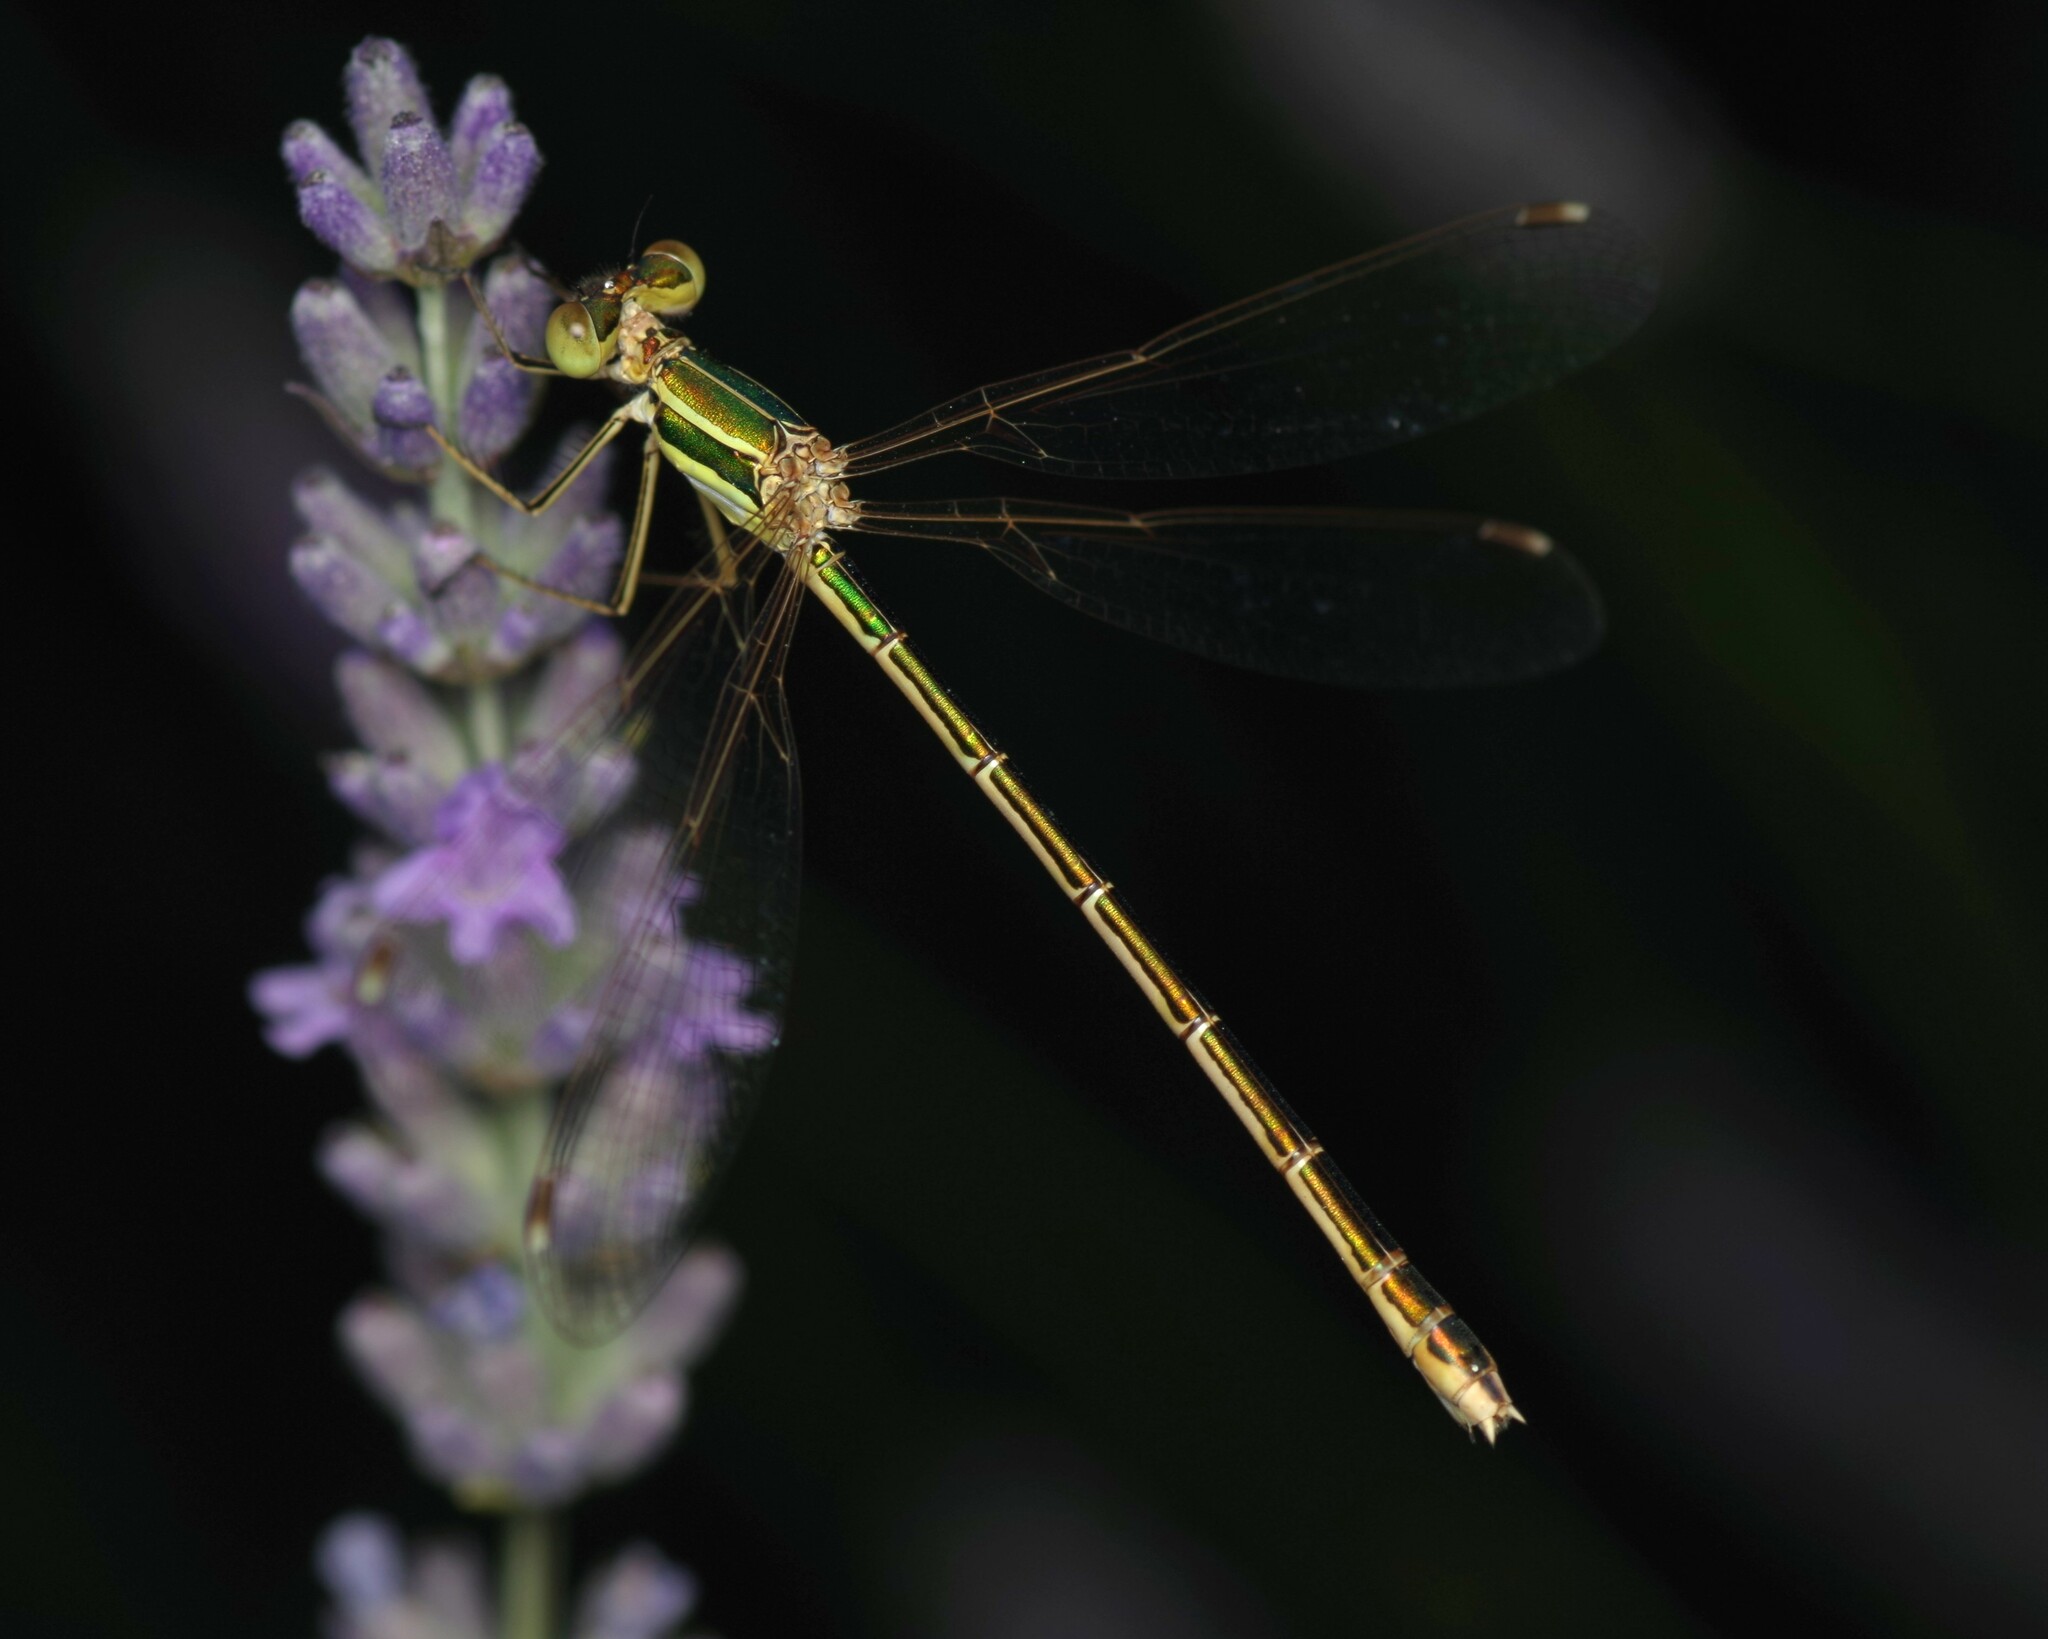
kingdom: Animalia
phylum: Arthropoda
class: Insecta
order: Odonata
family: Lestidae
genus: Lestes
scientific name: Lestes barbarus
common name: Migrant spreadwing
